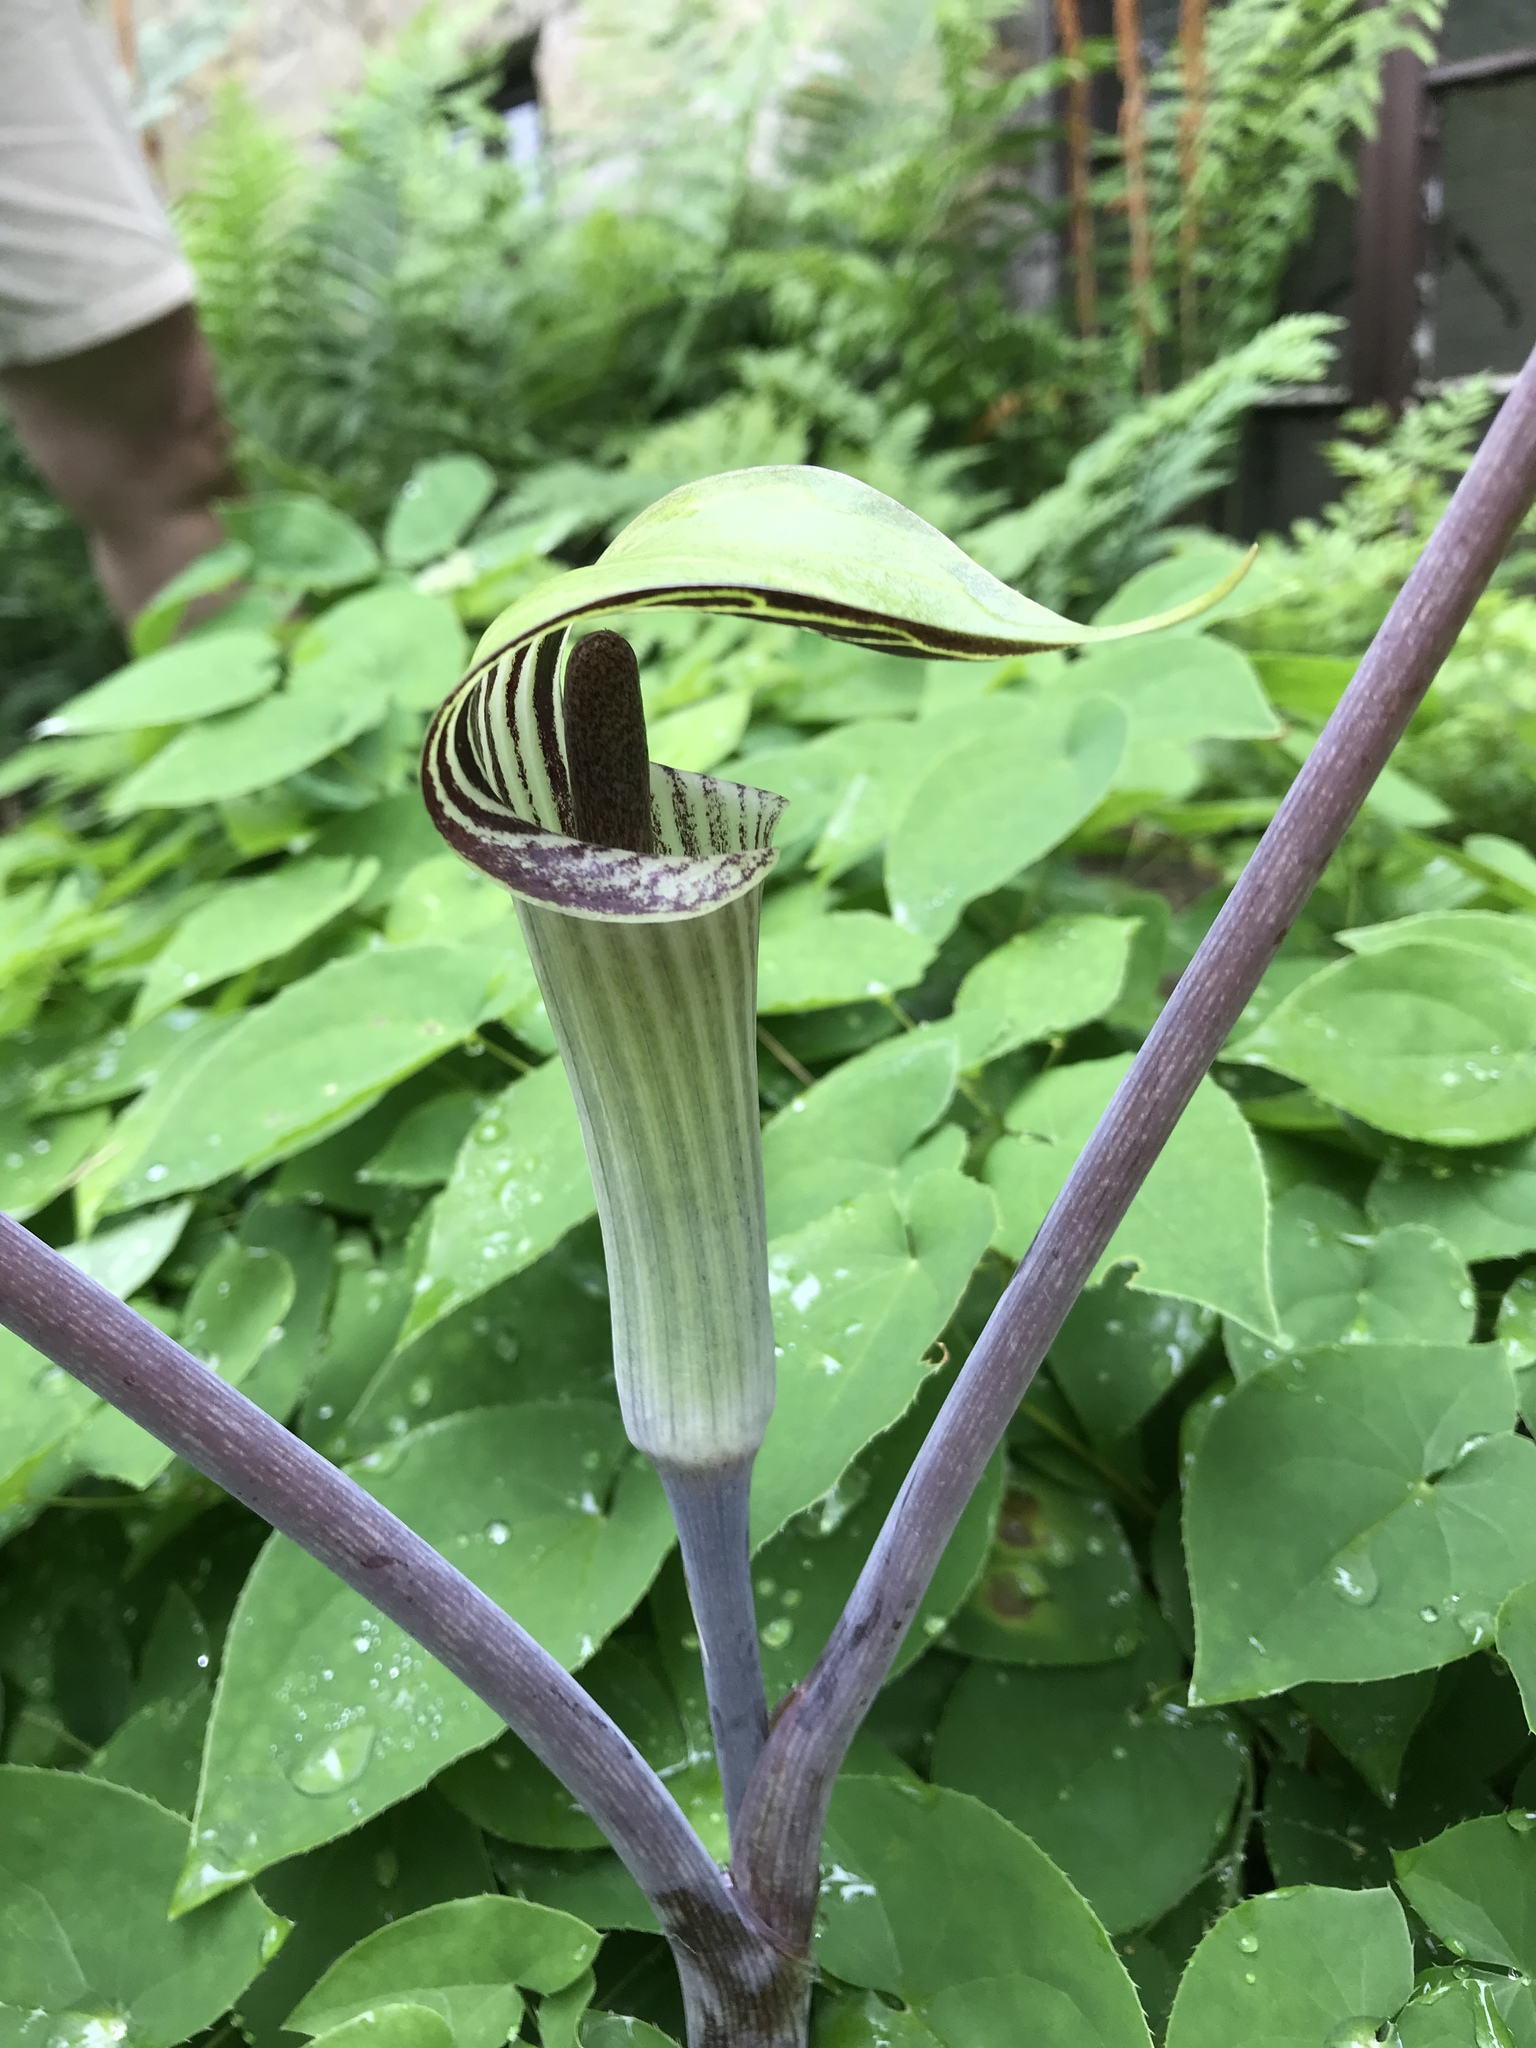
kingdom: Plantae
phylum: Tracheophyta
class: Liliopsida
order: Alismatales
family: Araceae
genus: Arisaema
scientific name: Arisaema triphyllum
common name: Jack-in-the-pulpit
